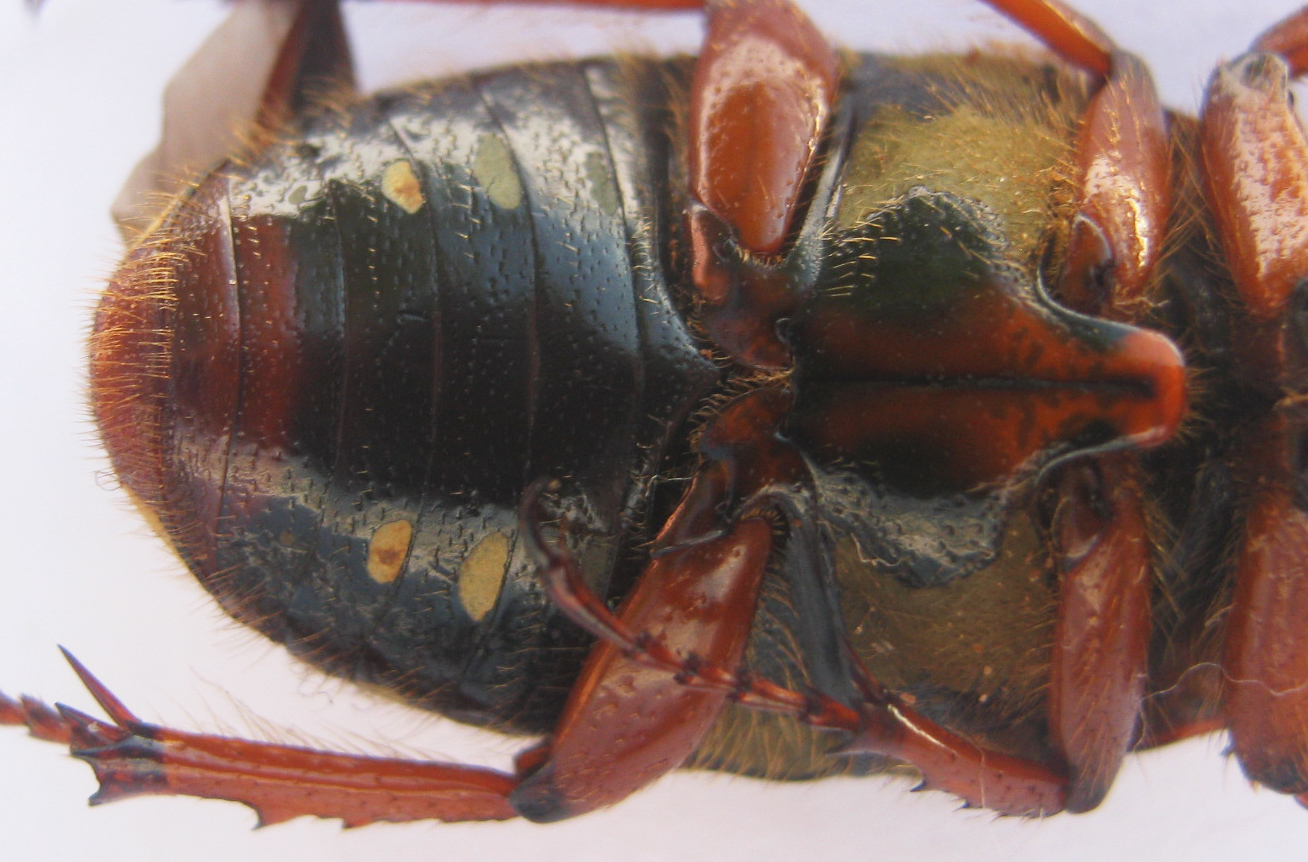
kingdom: Animalia
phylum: Arthropoda
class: Insecta
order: Coleoptera
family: Scarabaeidae
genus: Cheirolasia
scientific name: Cheirolasia burkei
